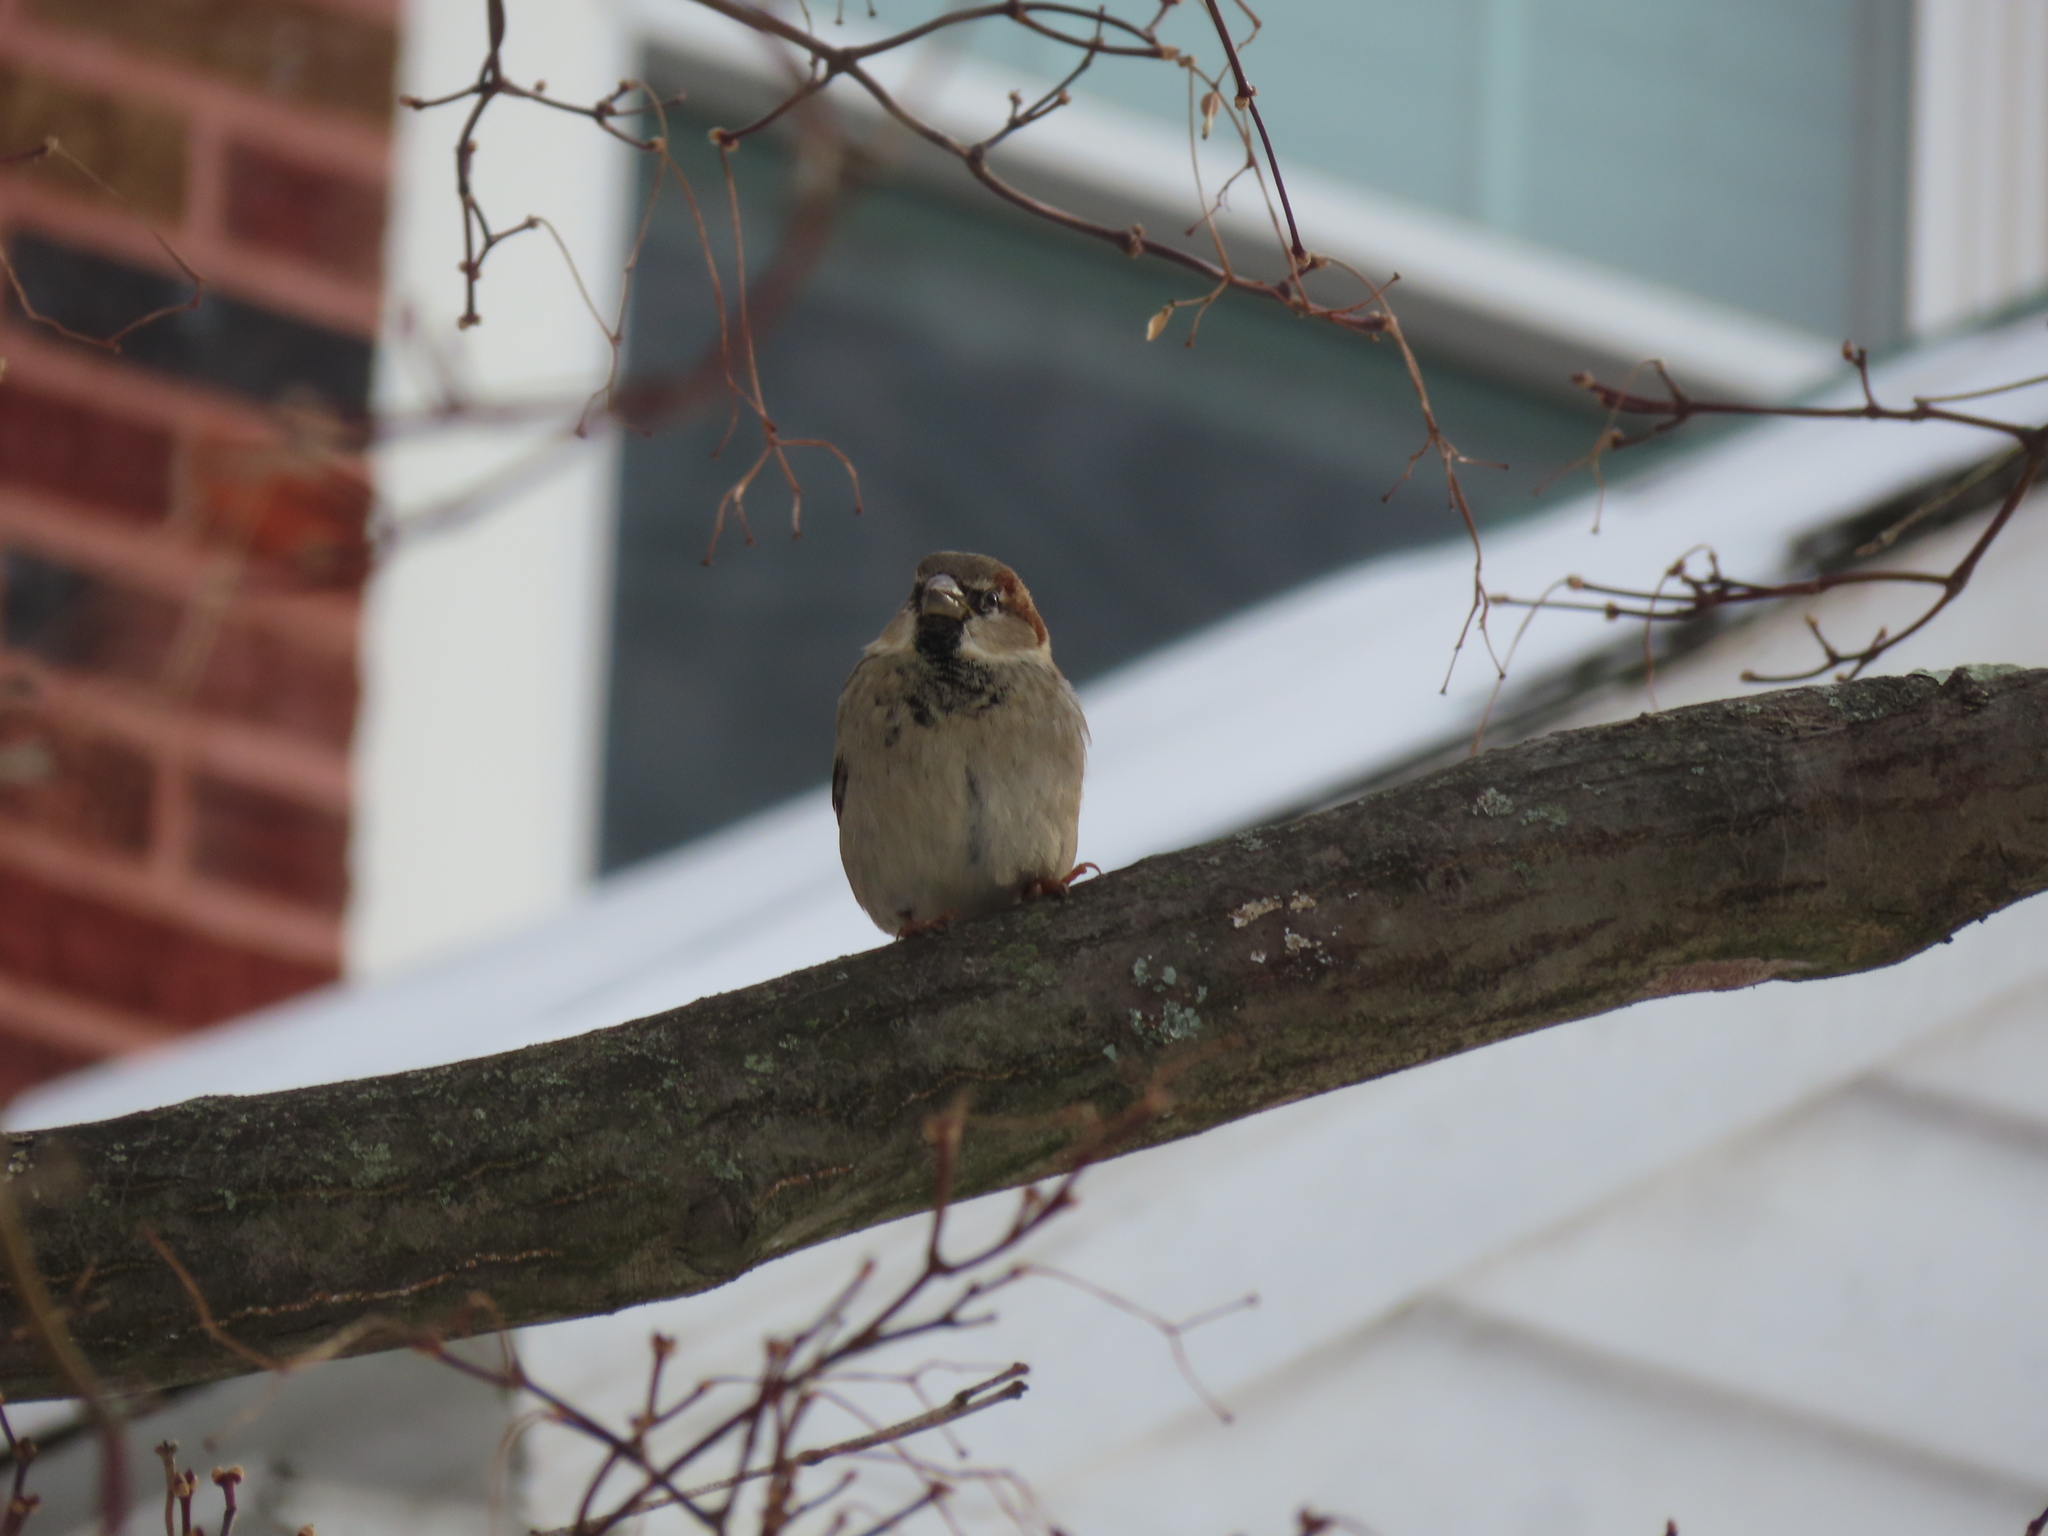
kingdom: Animalia
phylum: Chordata
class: Aves
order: Passeriformes
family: Passeridae
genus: Passer
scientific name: Passer domesticus
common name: House sparrow
